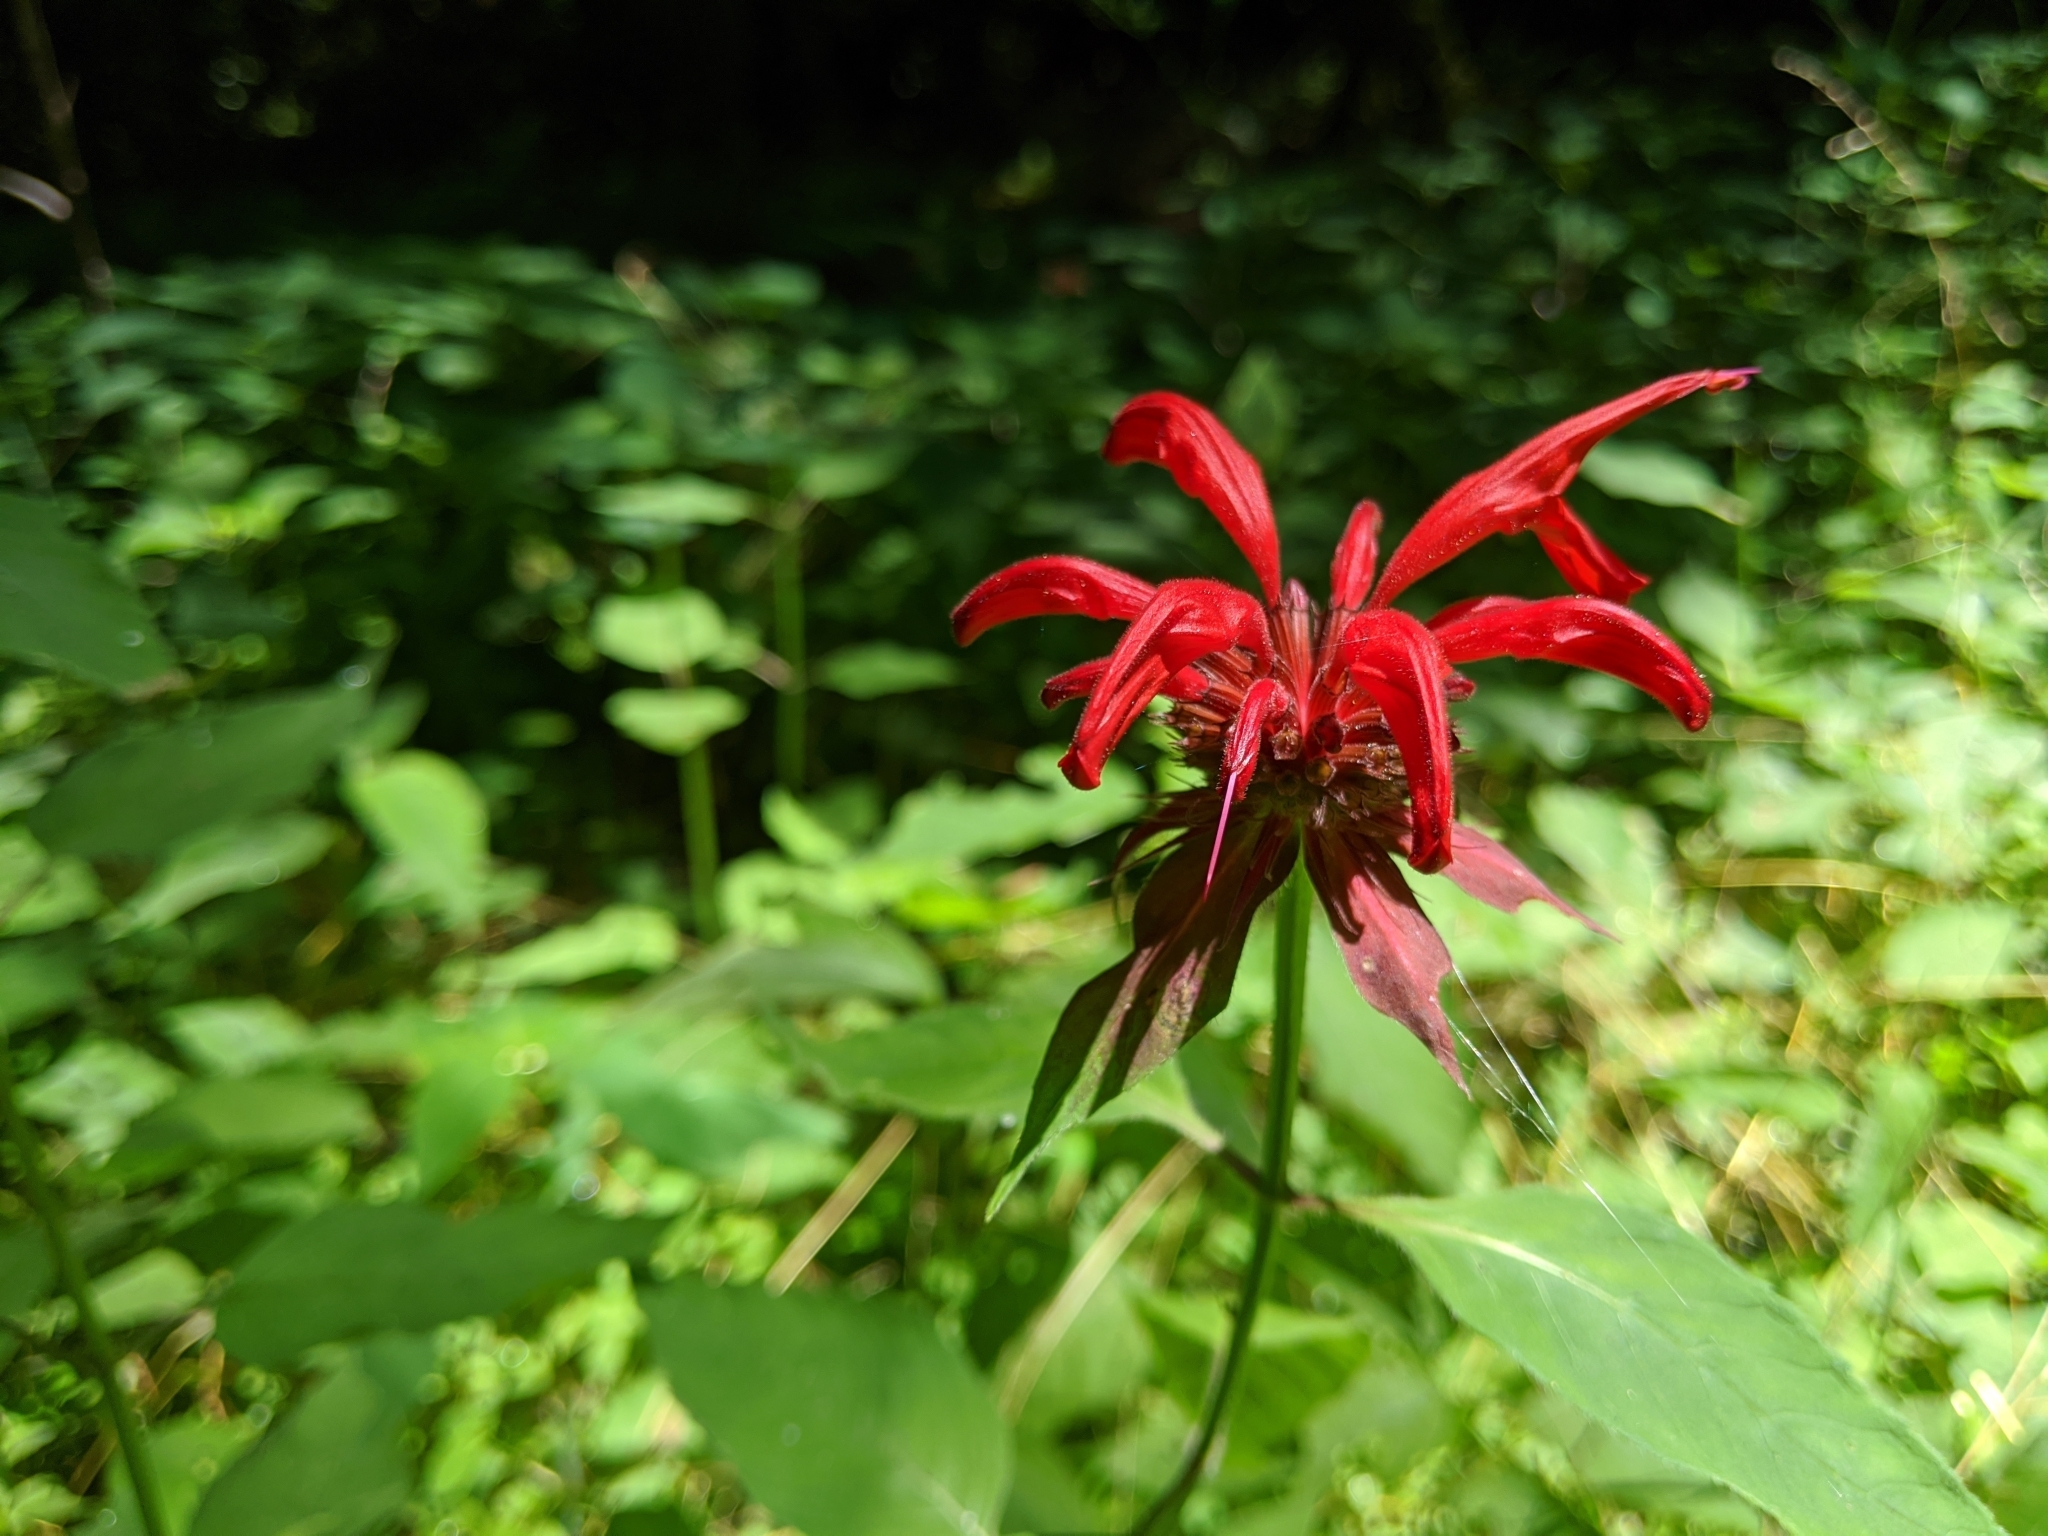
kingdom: Plantae
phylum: Tracheophyta
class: Magnoliopsida
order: Lamiales
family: Lamiaceae
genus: Monarda
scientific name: Monarda didyma
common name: Beebalm
